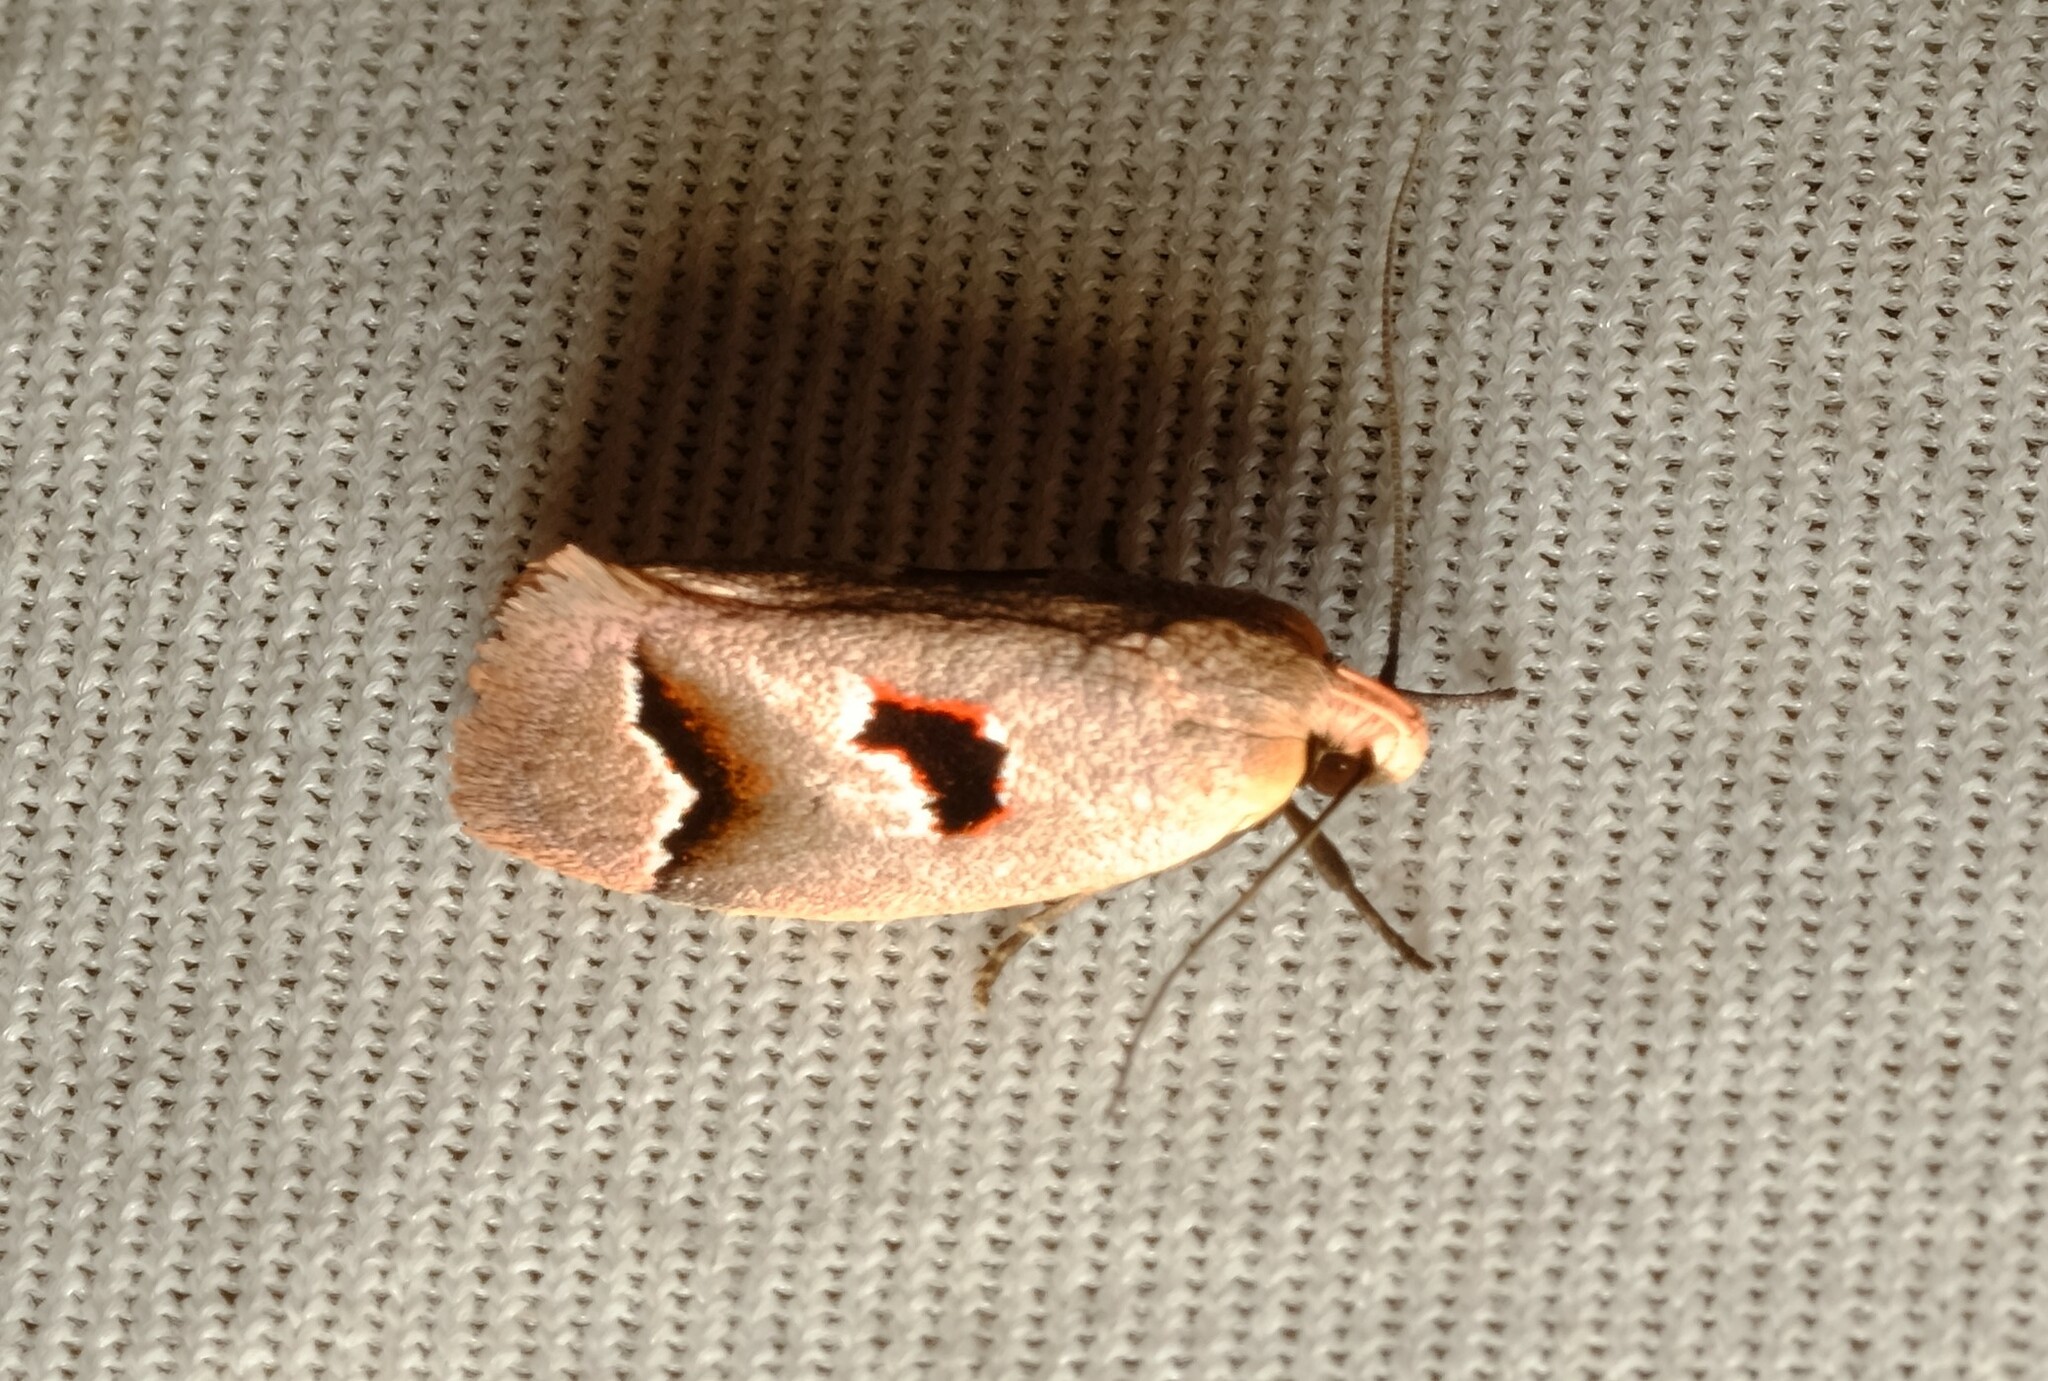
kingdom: Animalia
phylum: Arthropoda
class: Insecta
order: Lepidoptera
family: Oecophoridae
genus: Acanthodela
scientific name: Acanthodela erythrosema
